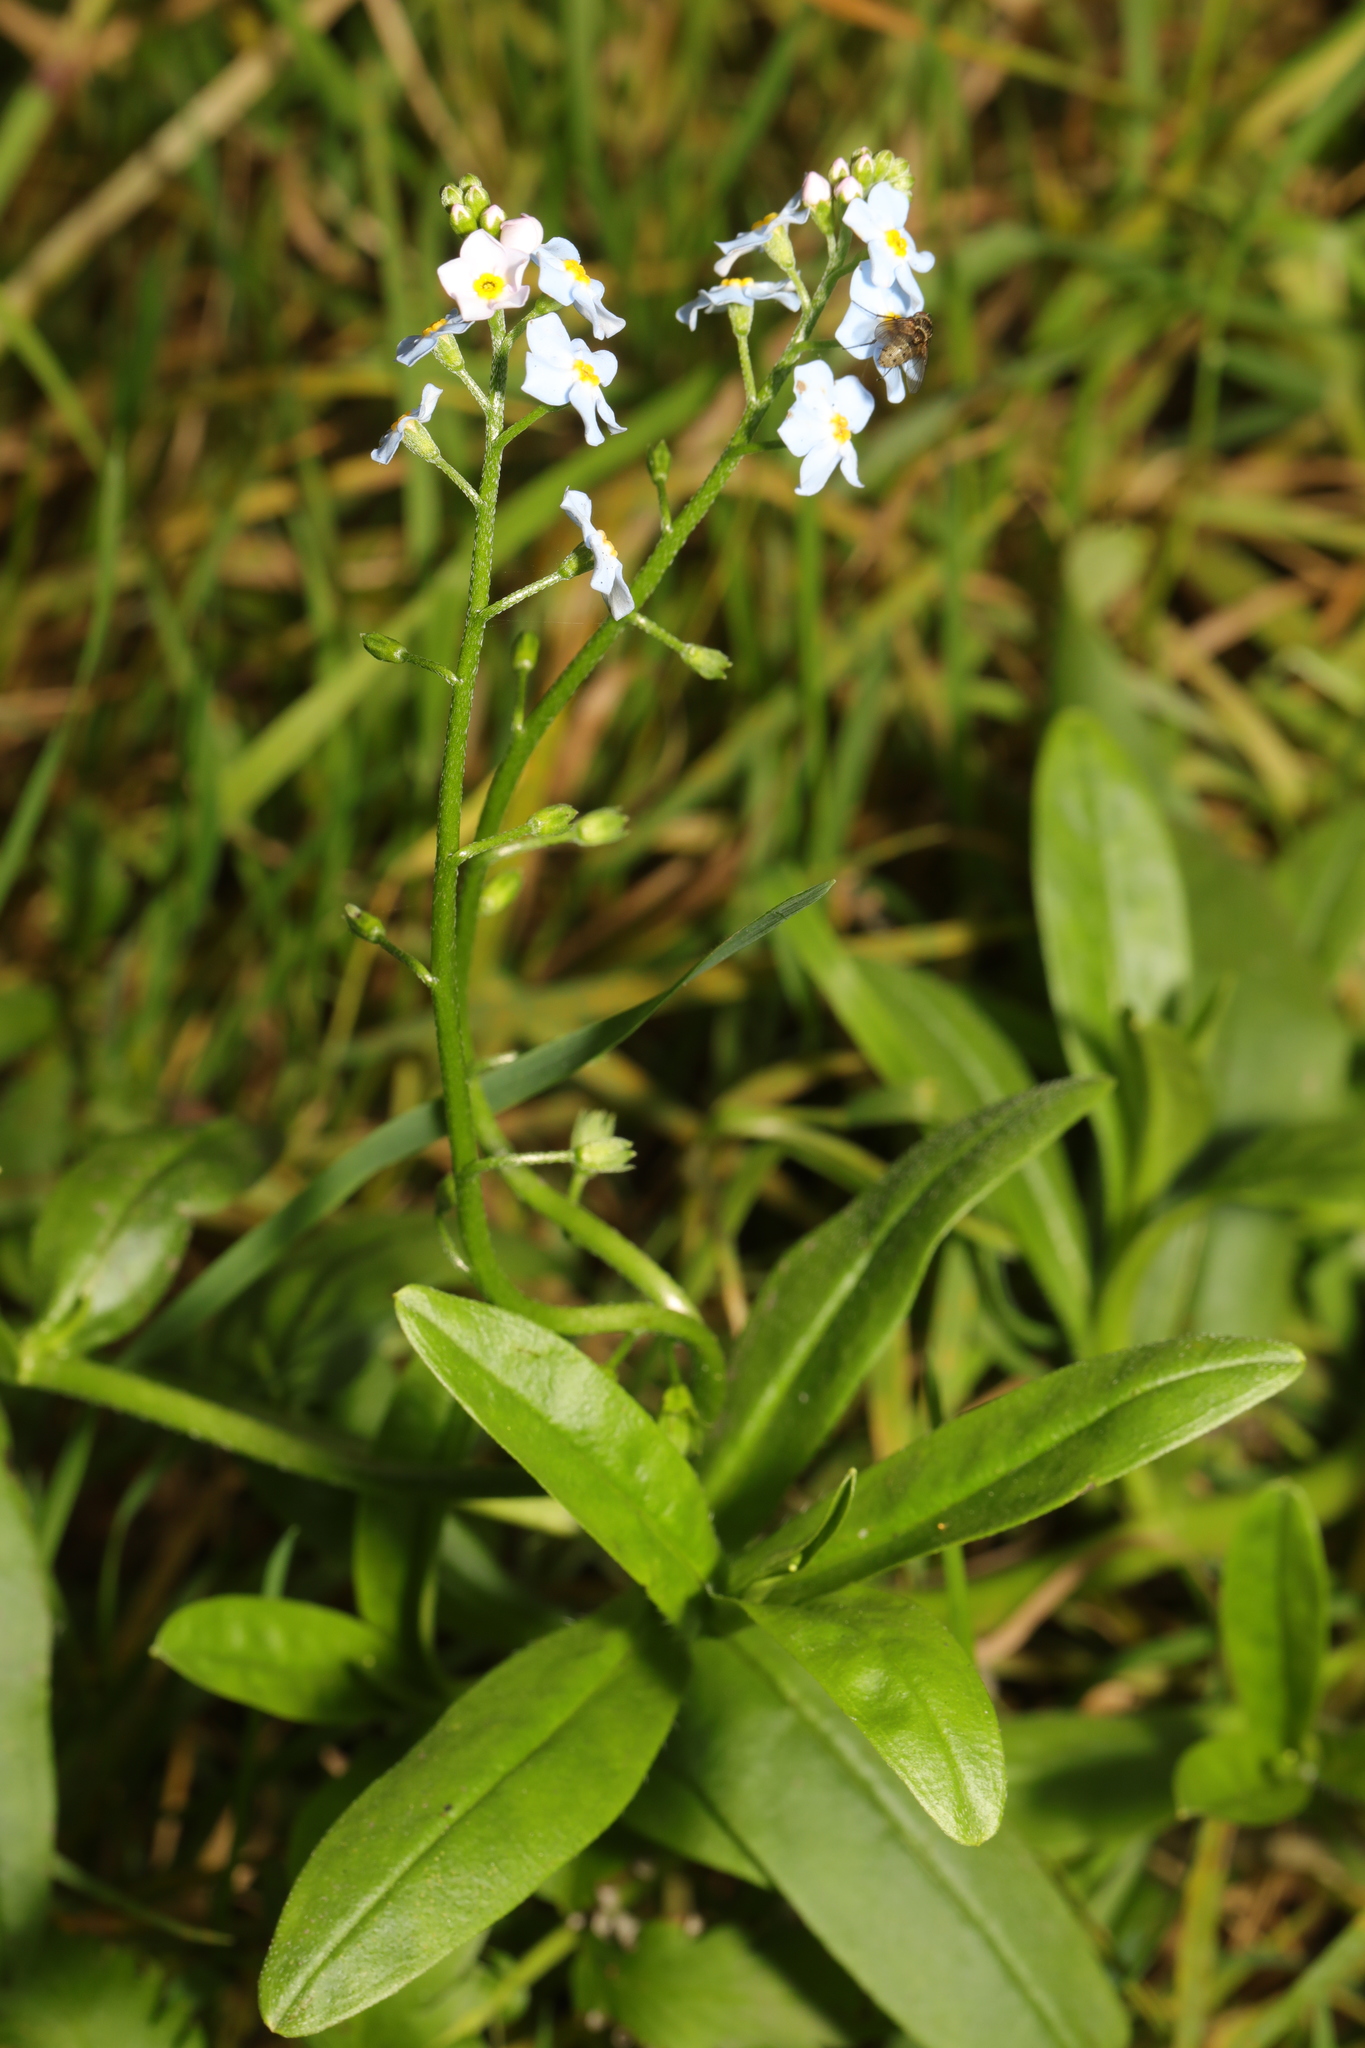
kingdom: Plantae
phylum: Tracheophyta
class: Magnoliopsida
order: Boraginales
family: Boraginaceae
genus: Myosotis
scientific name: Myosotis scorpioides
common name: Water forget-me-not
